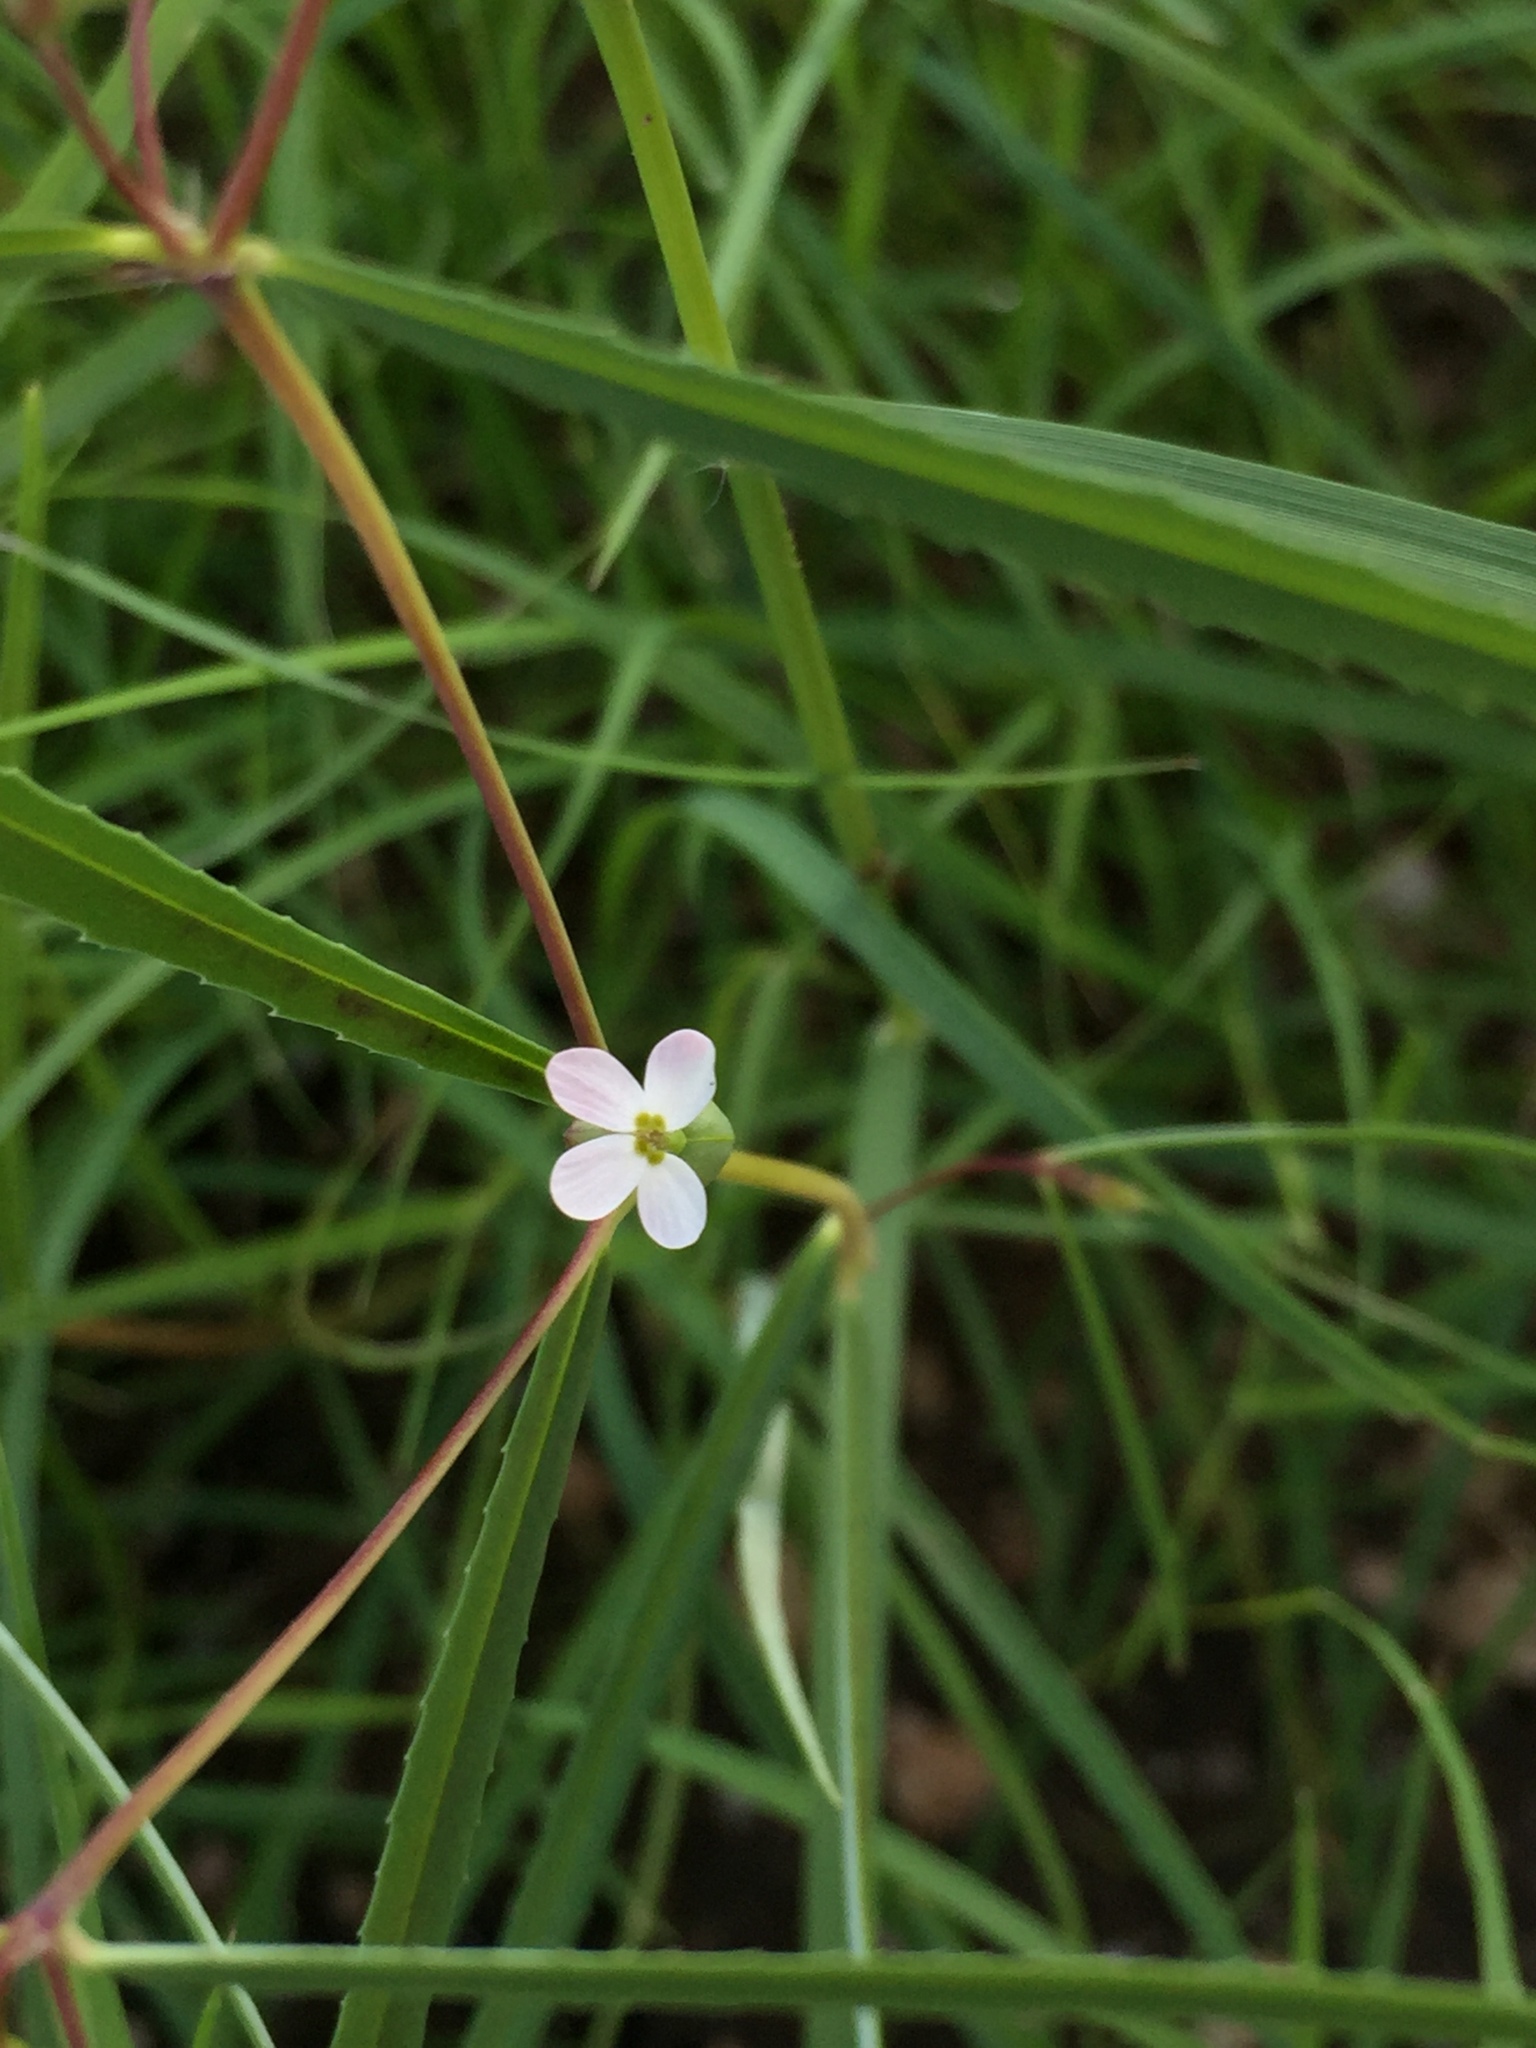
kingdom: Plantae
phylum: Tracheophyta
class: Magnoliopsida
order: Malpighiales
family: Euphorbiaceae
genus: Euphorbia
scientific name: Euphorbia florida
